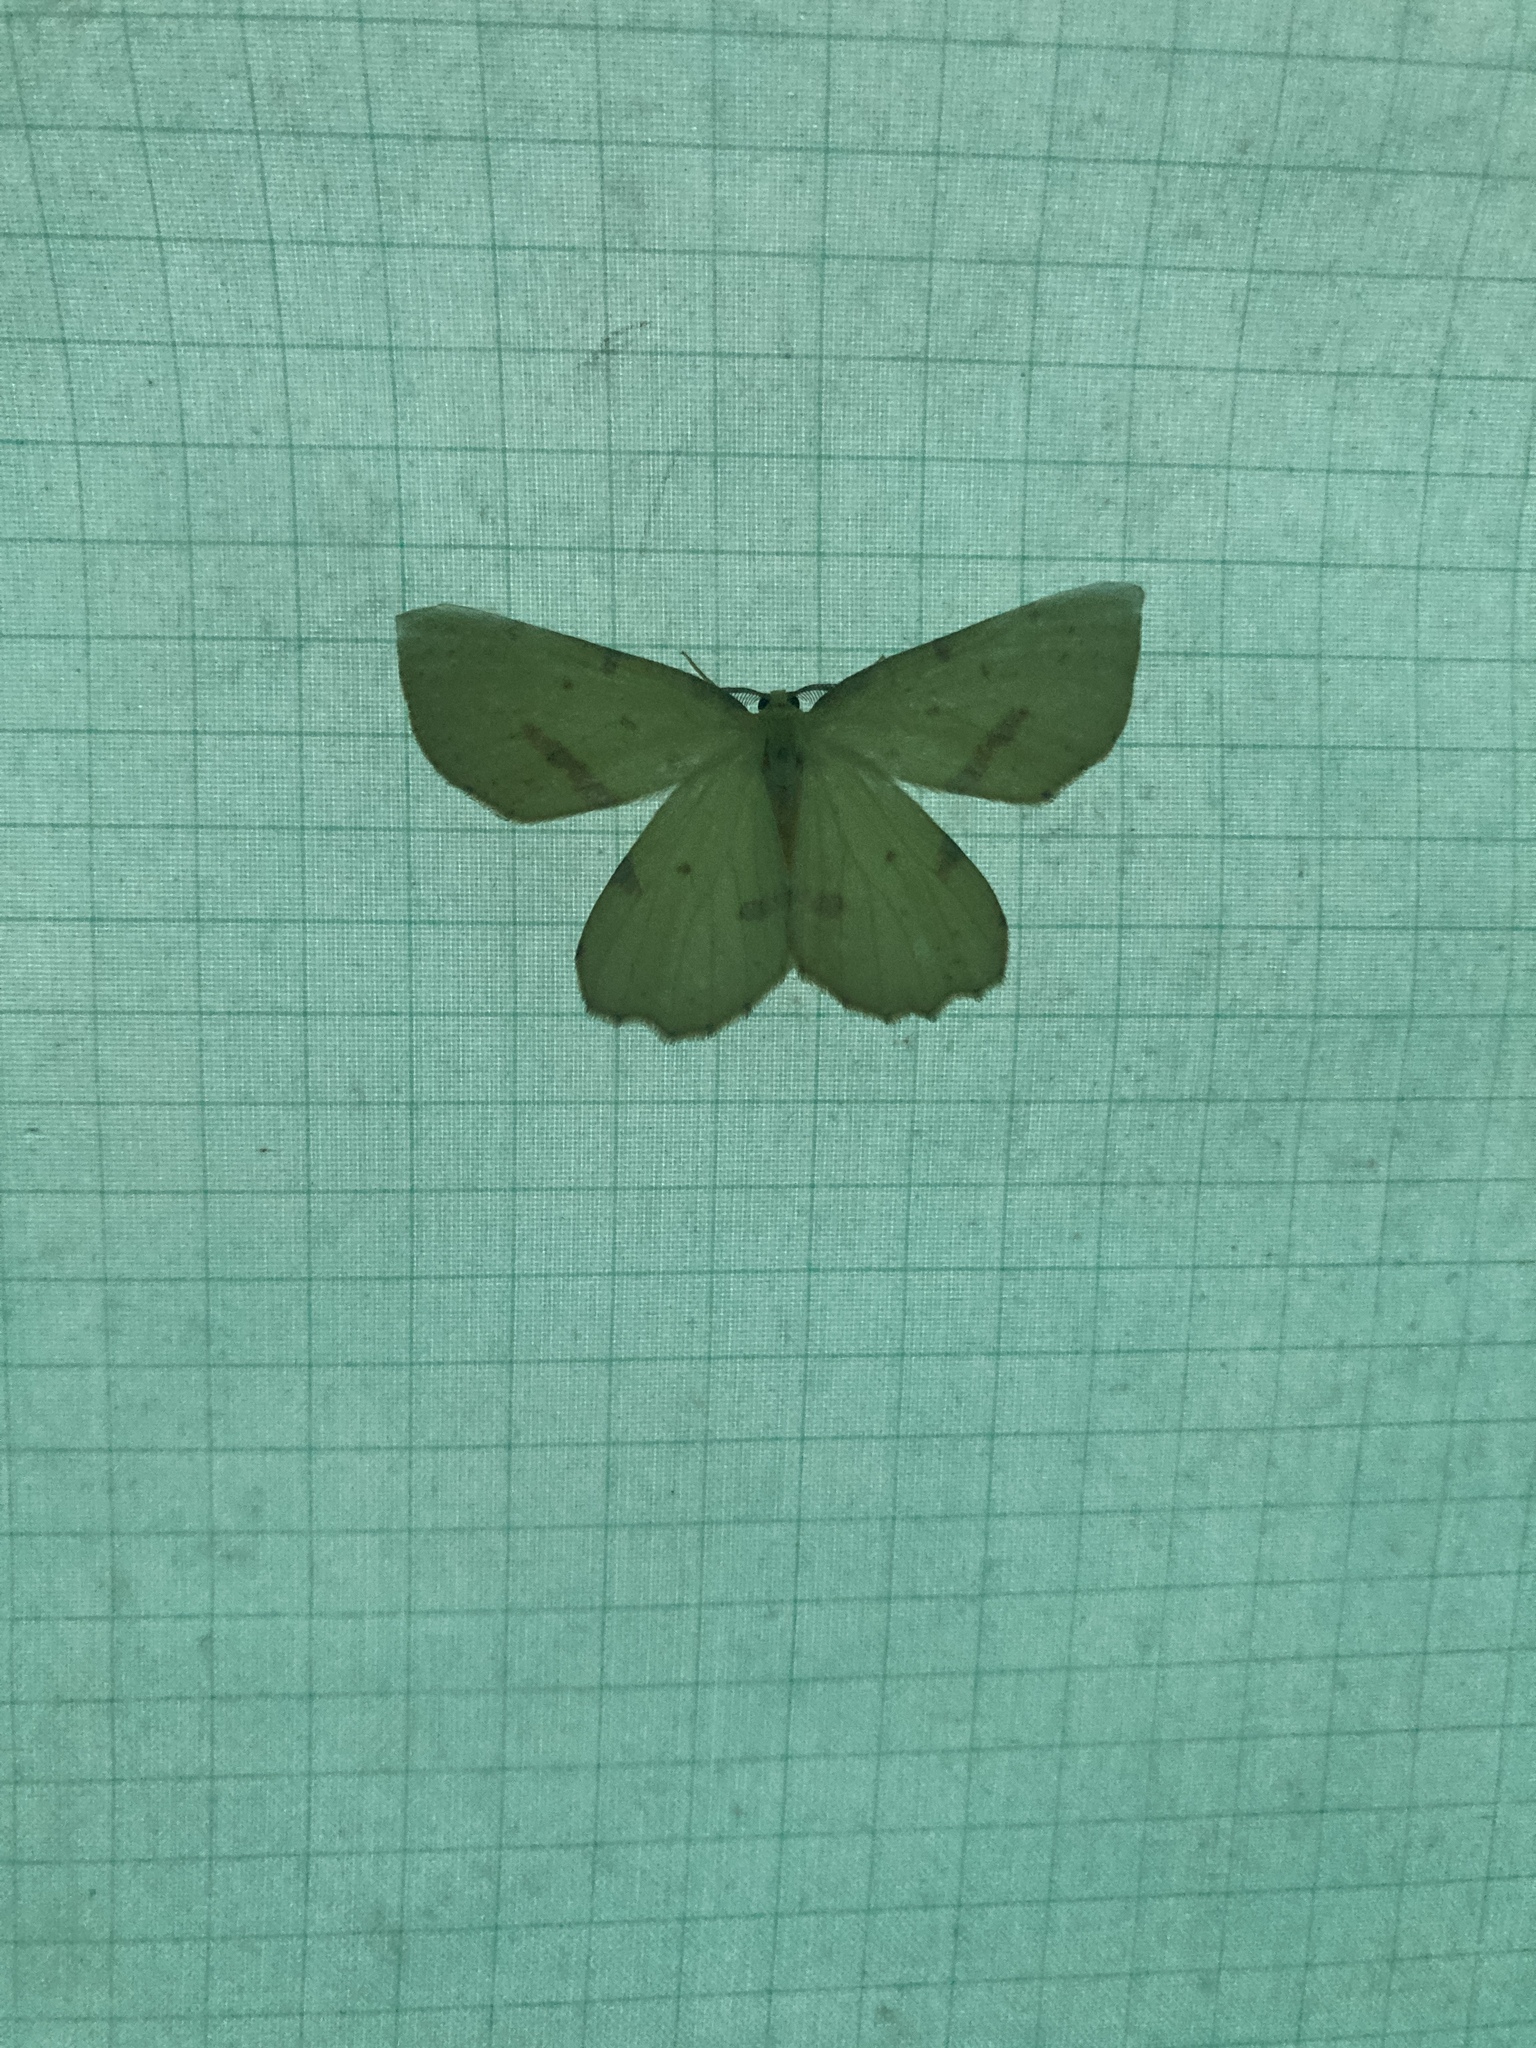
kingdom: Animalia
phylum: Arthropoda
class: Insecta
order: Lepidoptera
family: Geometridae
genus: Xanthotype
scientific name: Xanthotype
